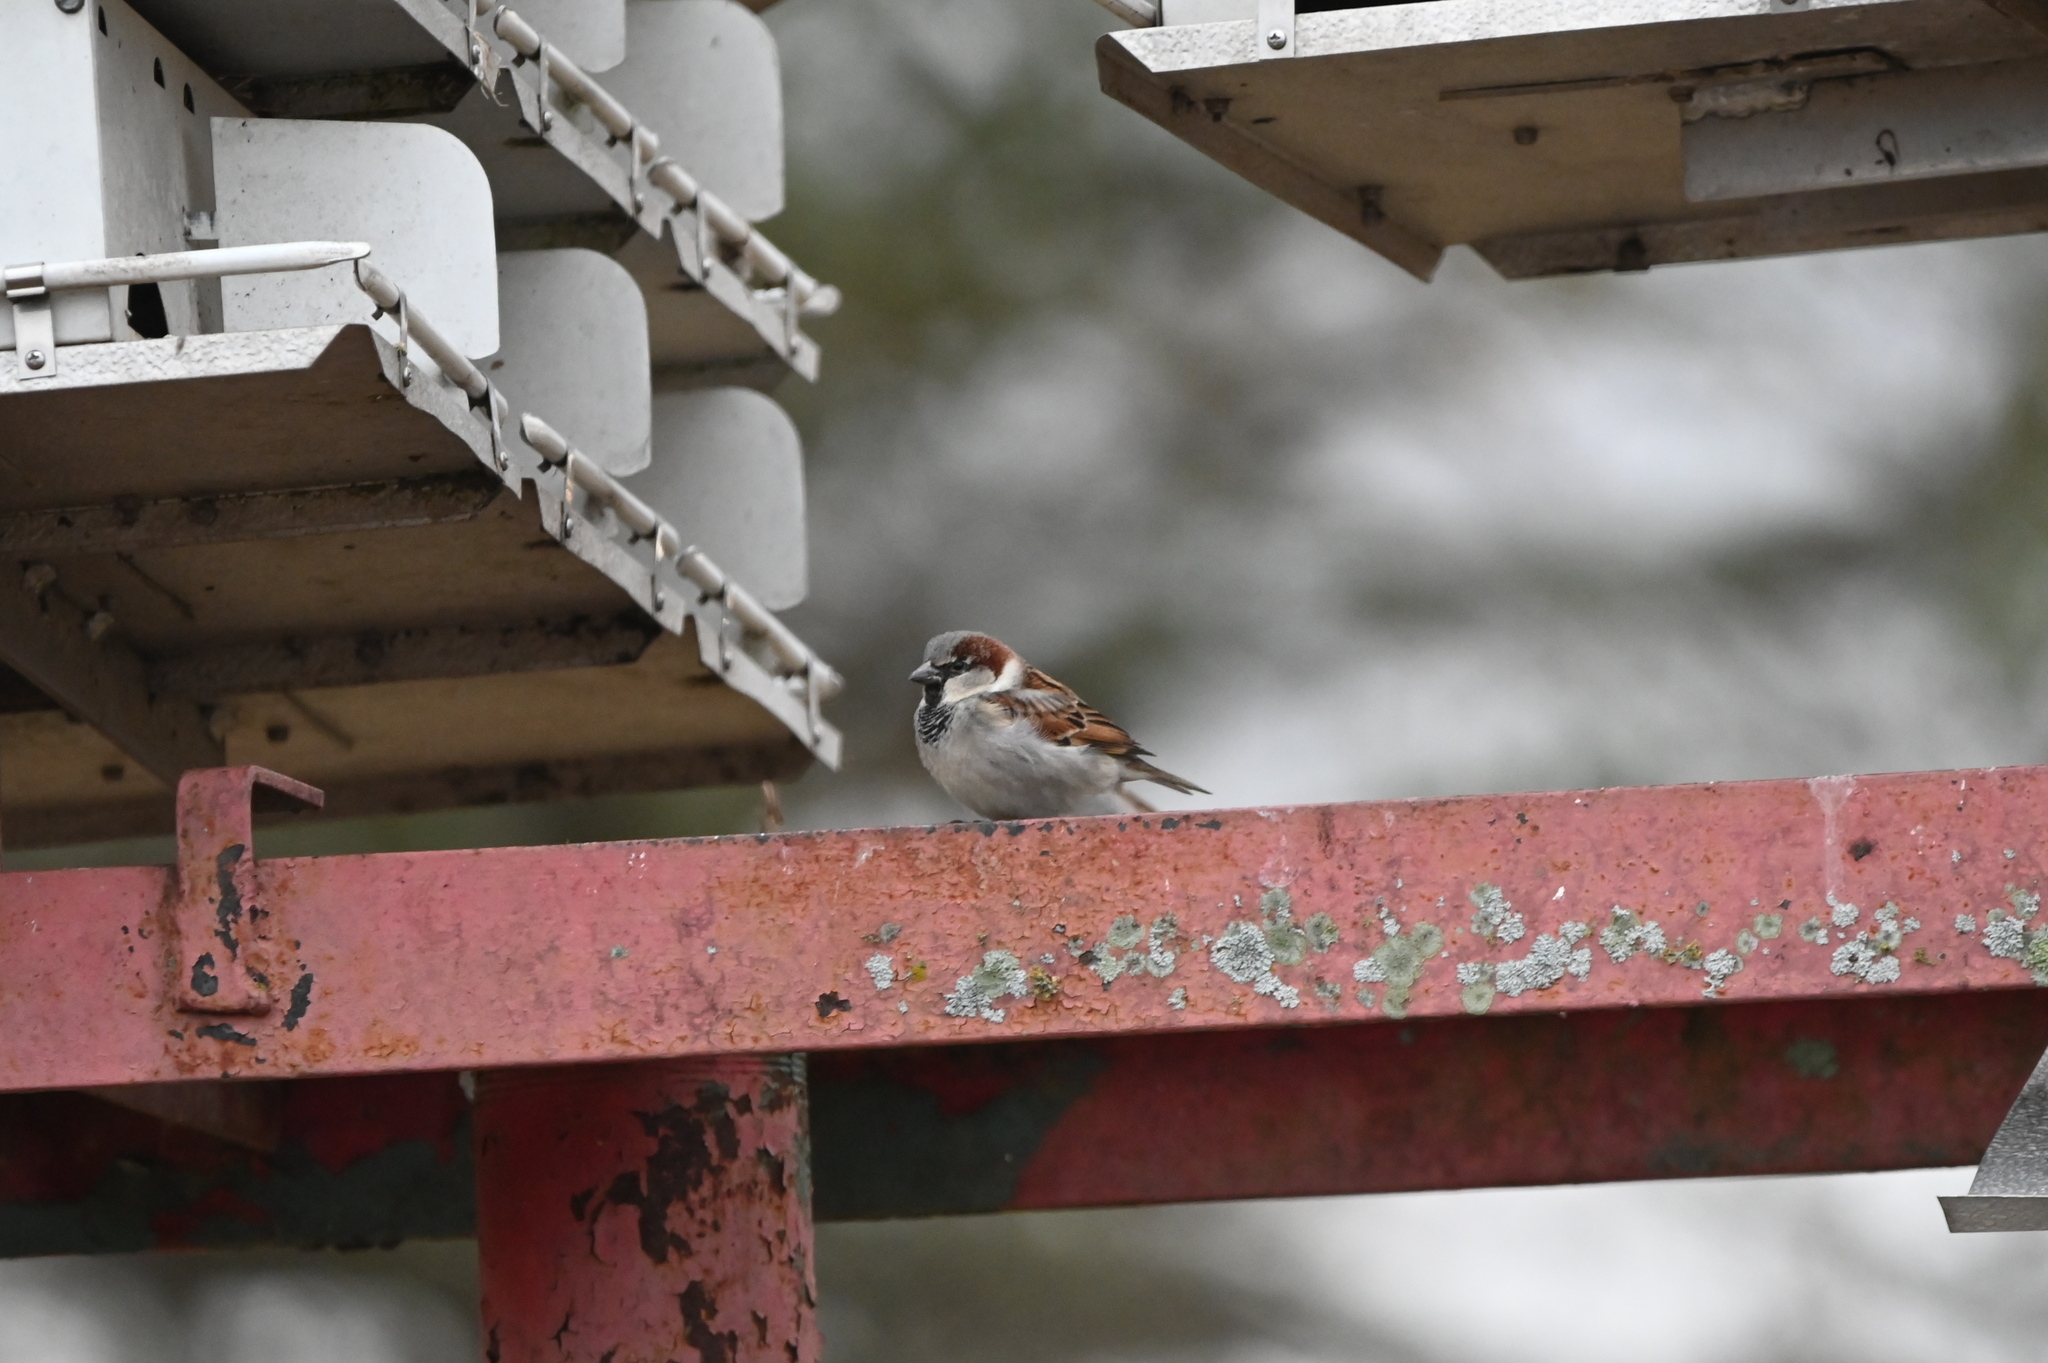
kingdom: Animalia
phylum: Chordata
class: Aves
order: Passeriformes
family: Passeridae
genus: Passer
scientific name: Passer domesticus
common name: House sparrow
